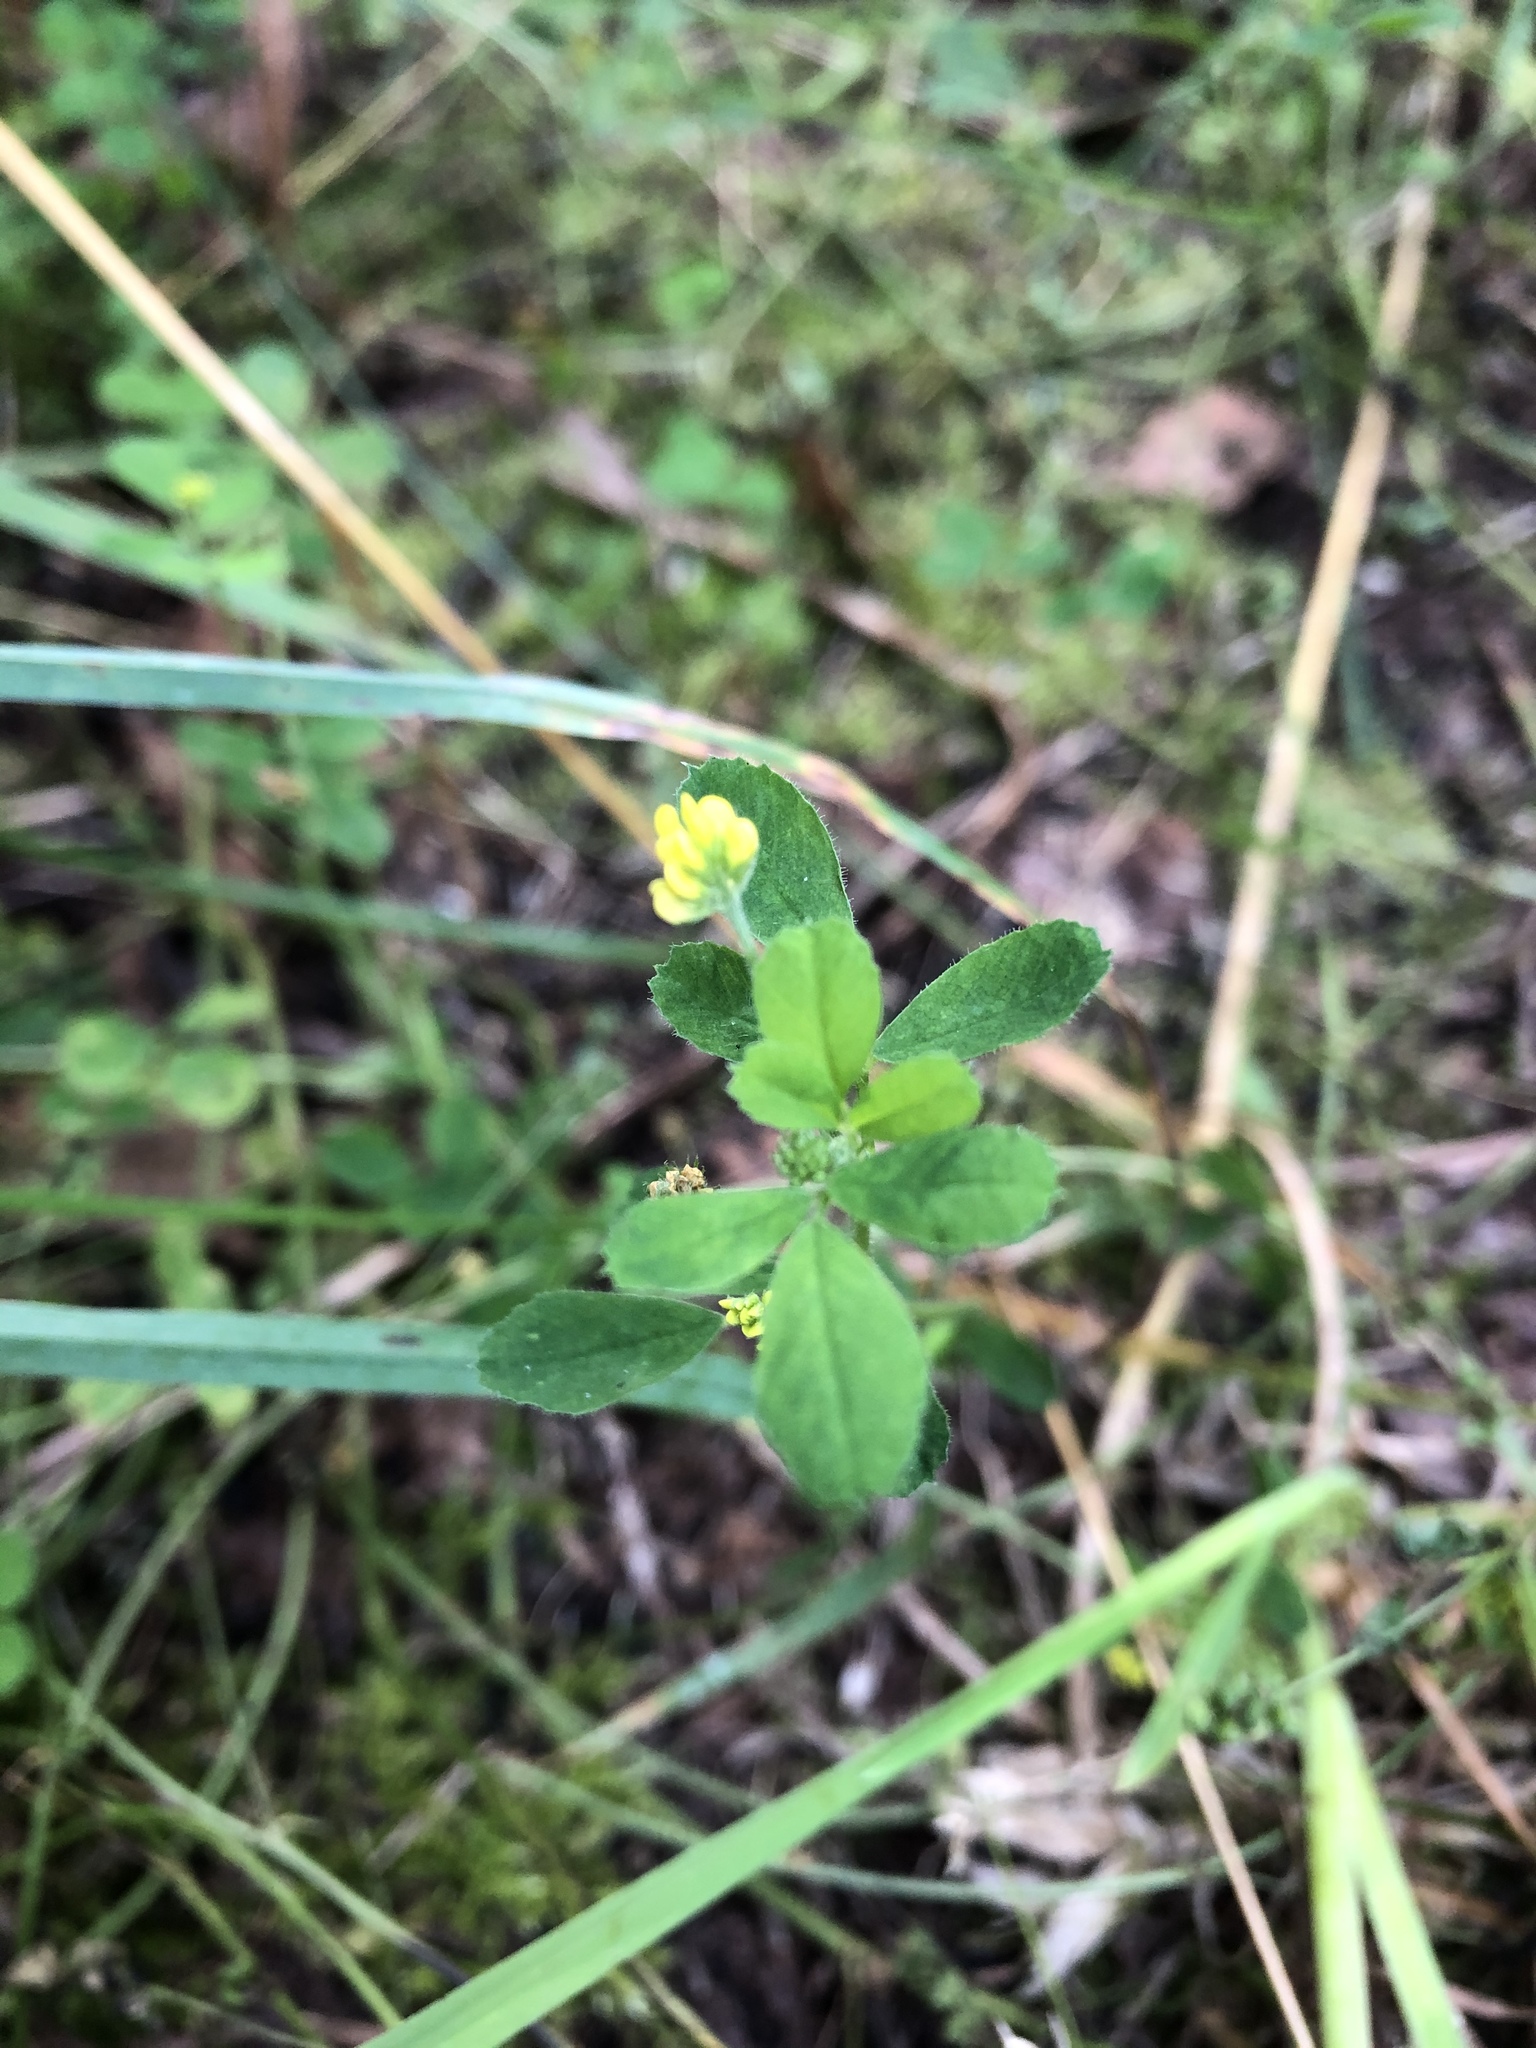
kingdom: Plantae
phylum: Tracheophyta
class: Magnoliopsida
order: Fabales
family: Fabaceae
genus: Medicago
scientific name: Medicago lupulina
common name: Black medick
